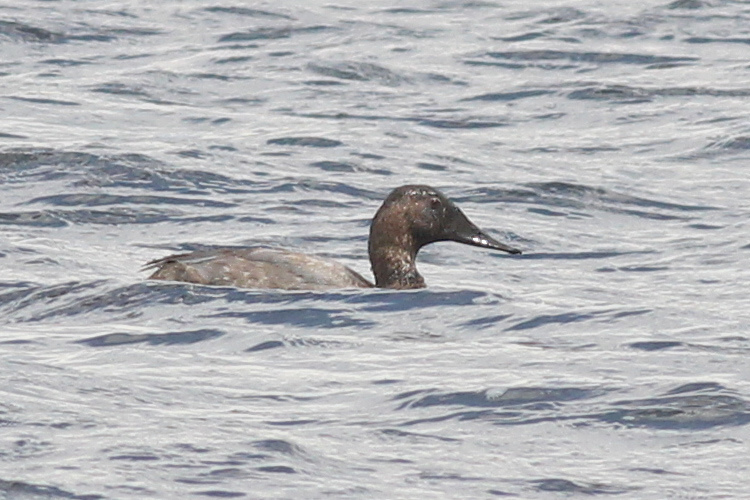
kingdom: Animalia
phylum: Chordata
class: Aves
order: Anseriformes
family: Anatidae
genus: Aythya
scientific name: Aythya valisineria
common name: Canvasback
